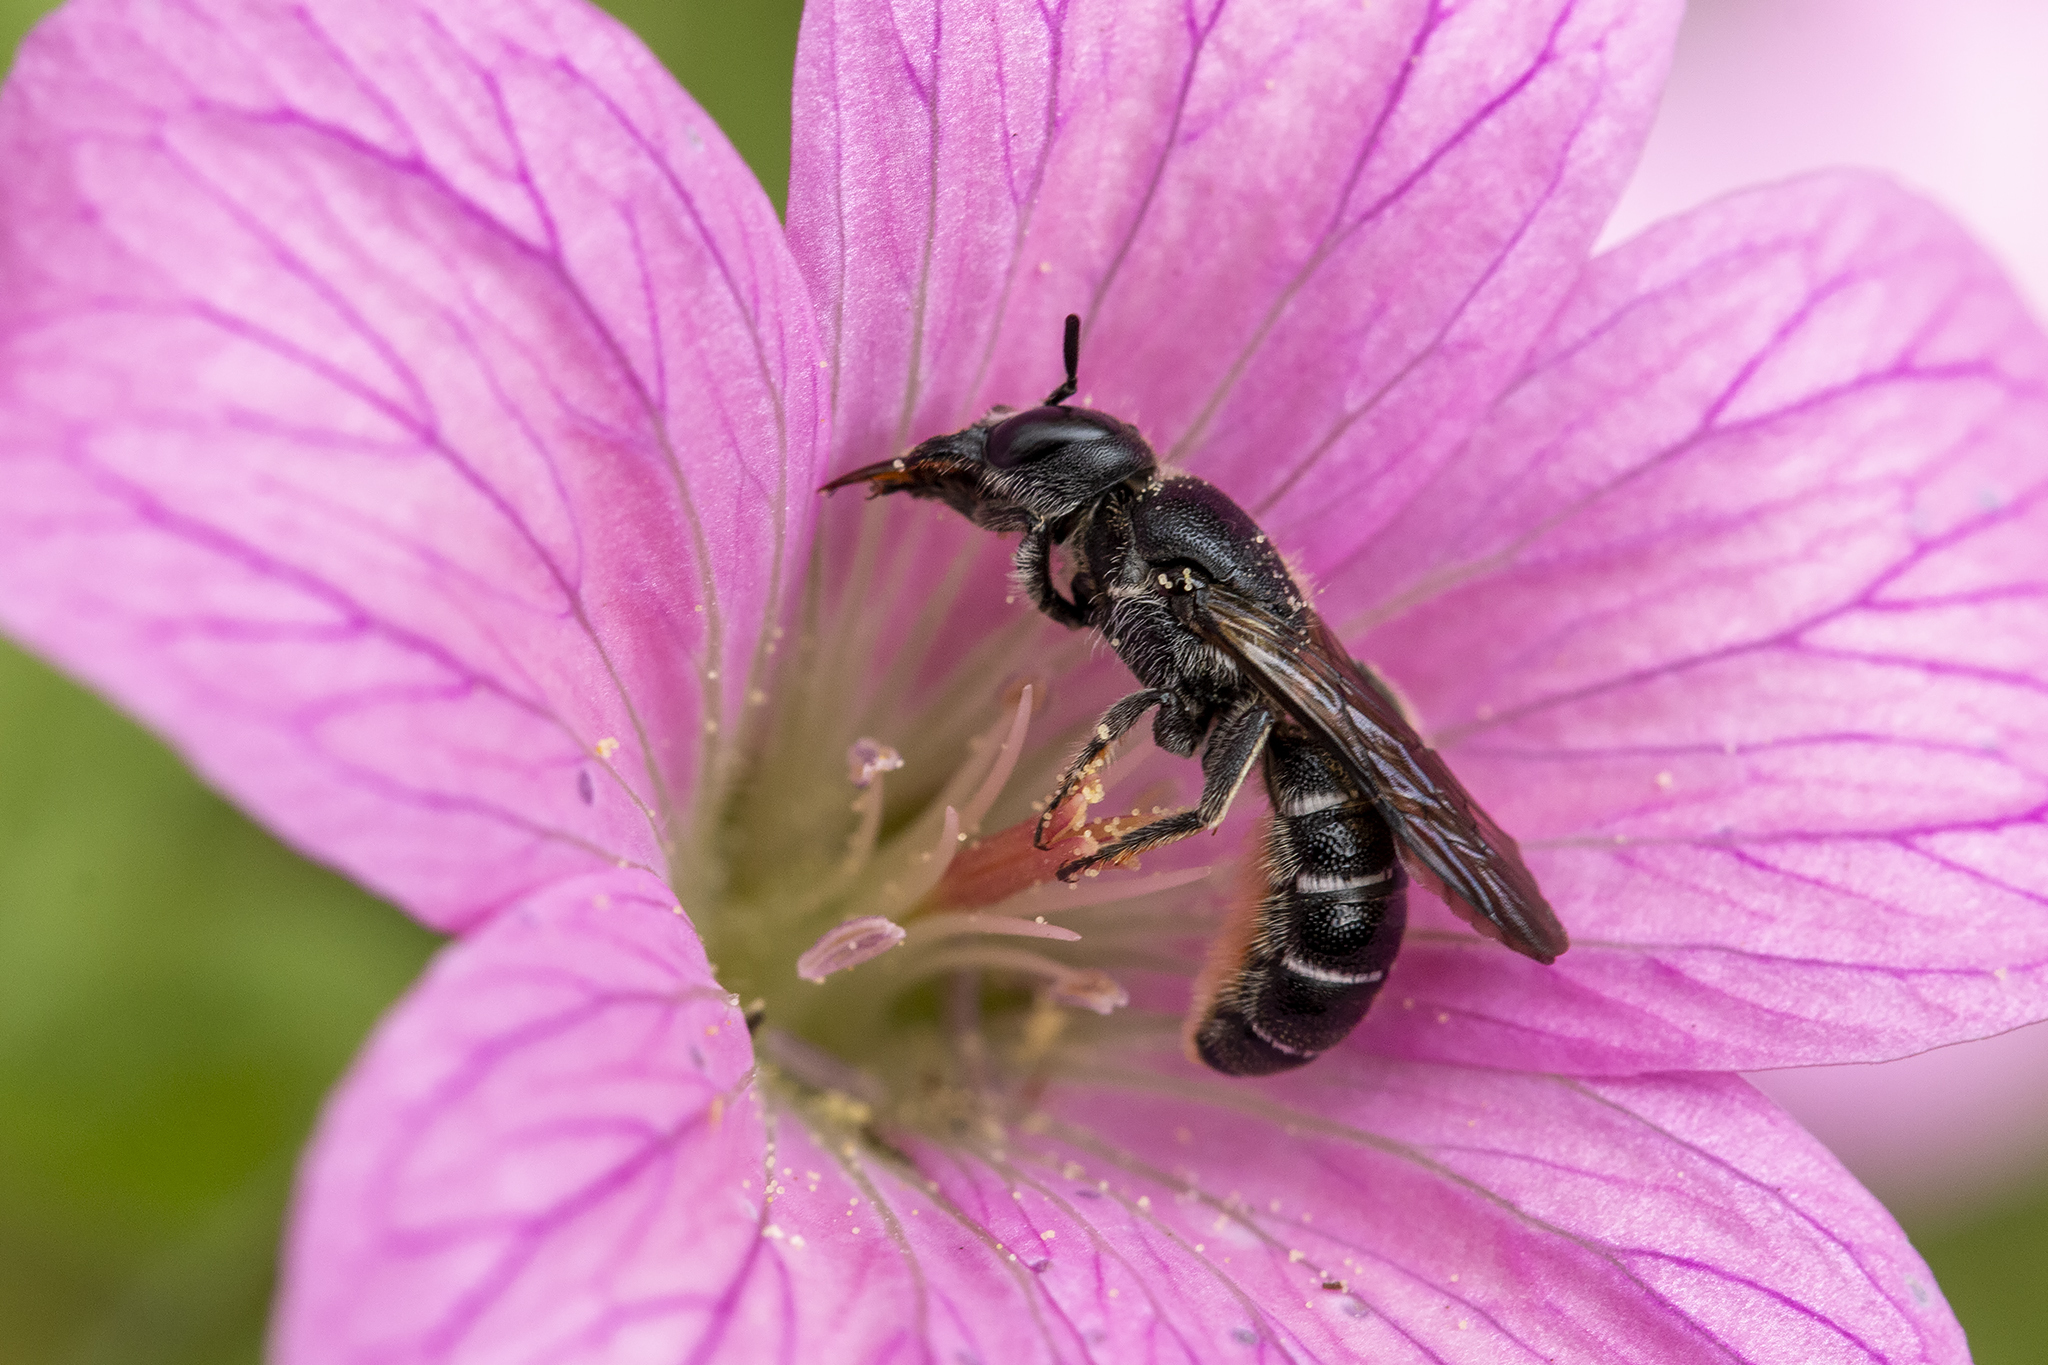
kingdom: Animalia
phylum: Arthropoda
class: Insecta
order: Hymenoptera
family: Megachilidae
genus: Chelostoma
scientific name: Chelostoma rapunculi
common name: Rampion scissor bee
